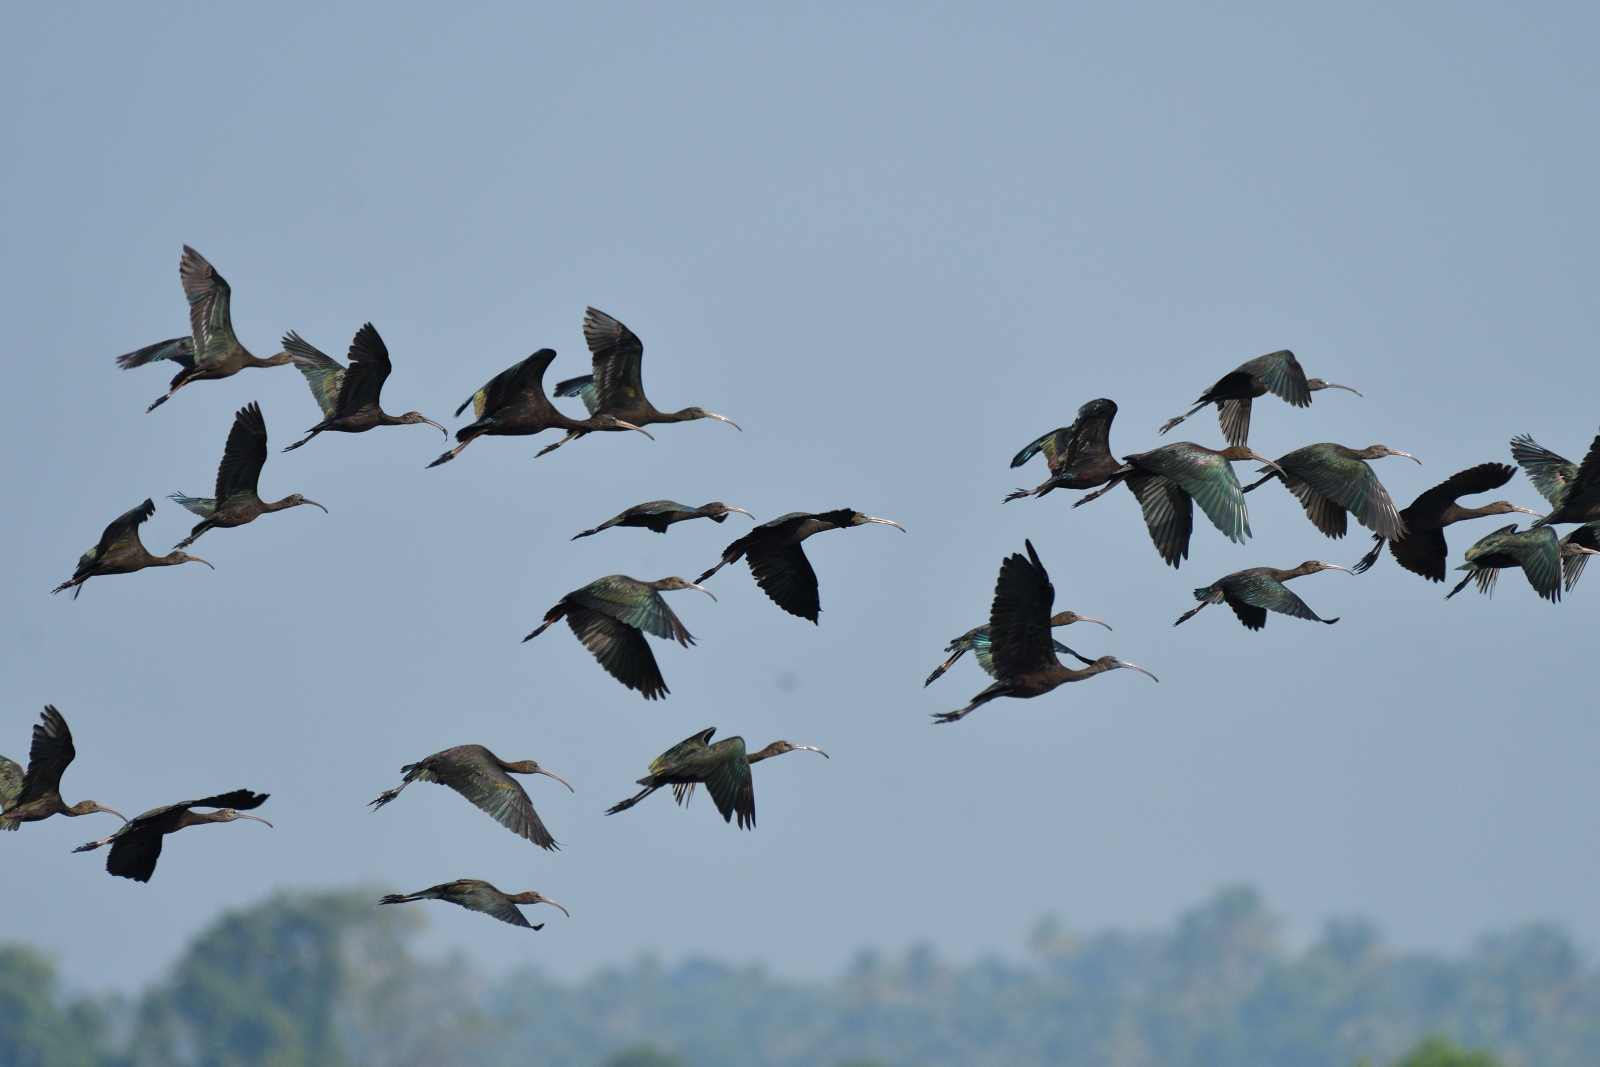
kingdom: Animalia
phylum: Chordata
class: Aves
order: Pelecaniformes
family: Threskiornithidae
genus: Plegadis
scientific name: Plegadis falcinellus
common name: Glossy ibis
